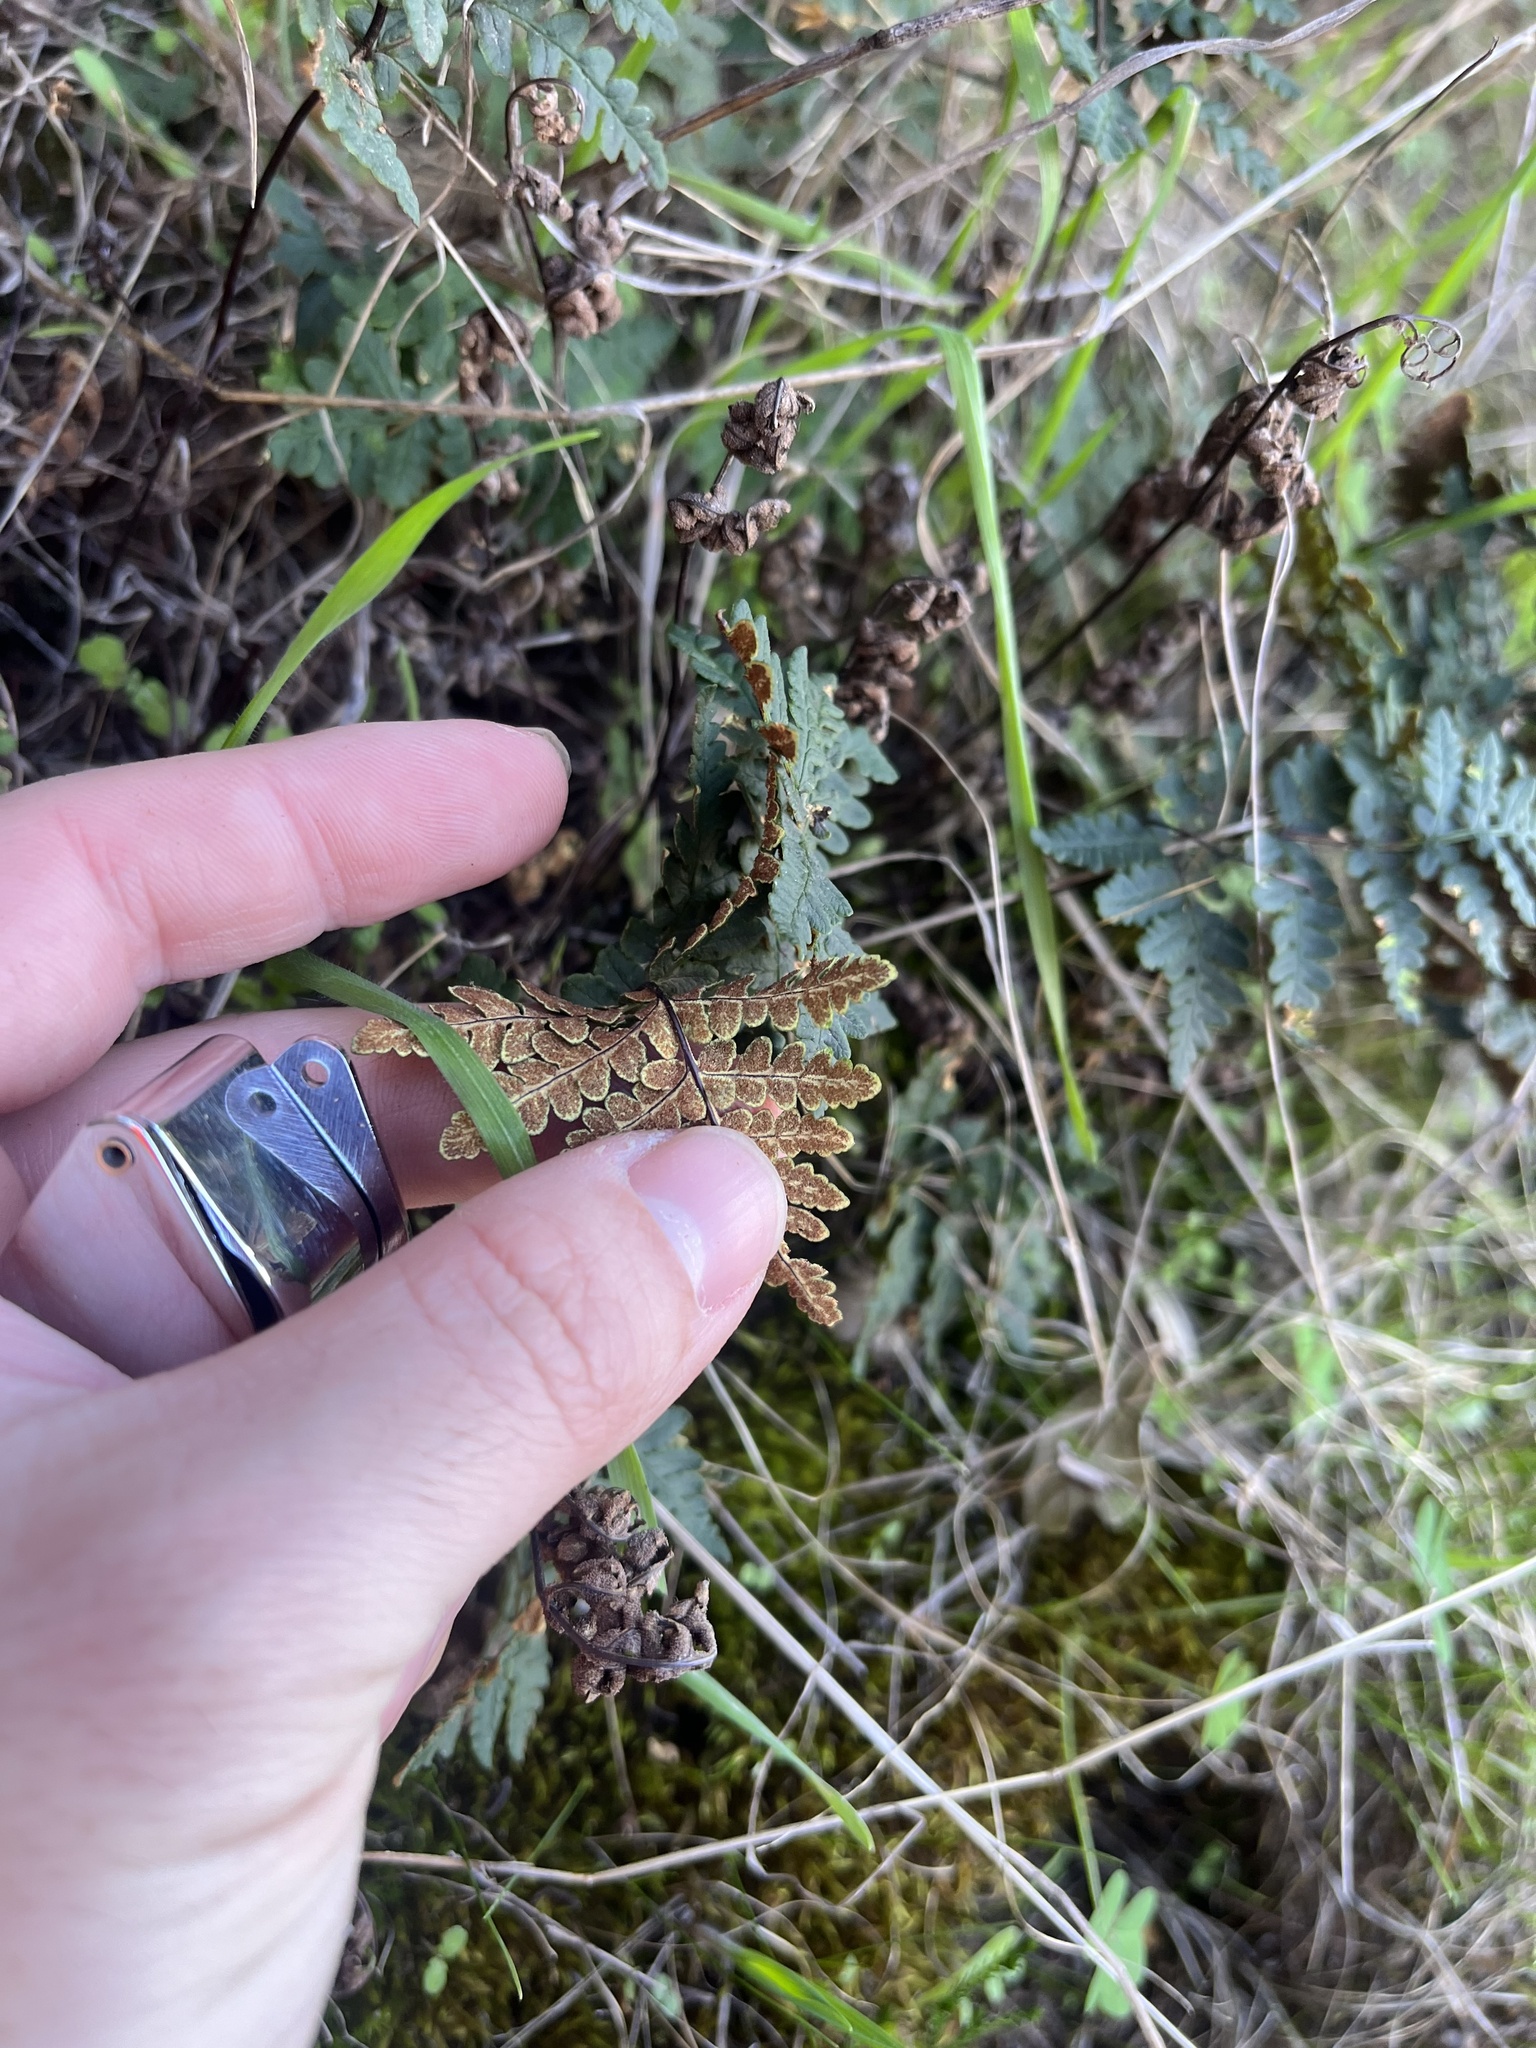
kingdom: Plantae
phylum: Tracheophyta
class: Polypodiopsida
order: Polypodiales
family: Pteridaceae
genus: Pentagramma
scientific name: Pentagramma triangularis
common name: Gold fern
